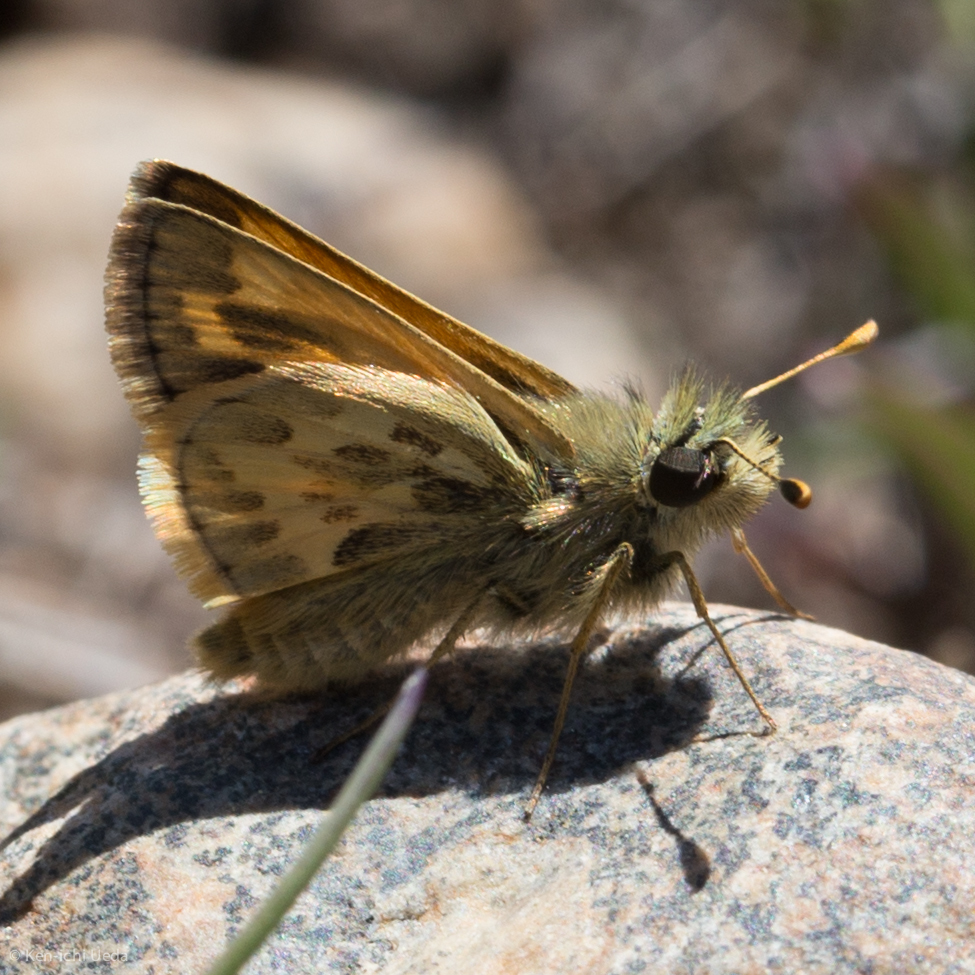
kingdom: Animalia
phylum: Arthropoda
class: Insecta
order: Lepidoptera
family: Hesperiidae
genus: Polites
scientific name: Polites sabuleti
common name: Sandhill skipper
